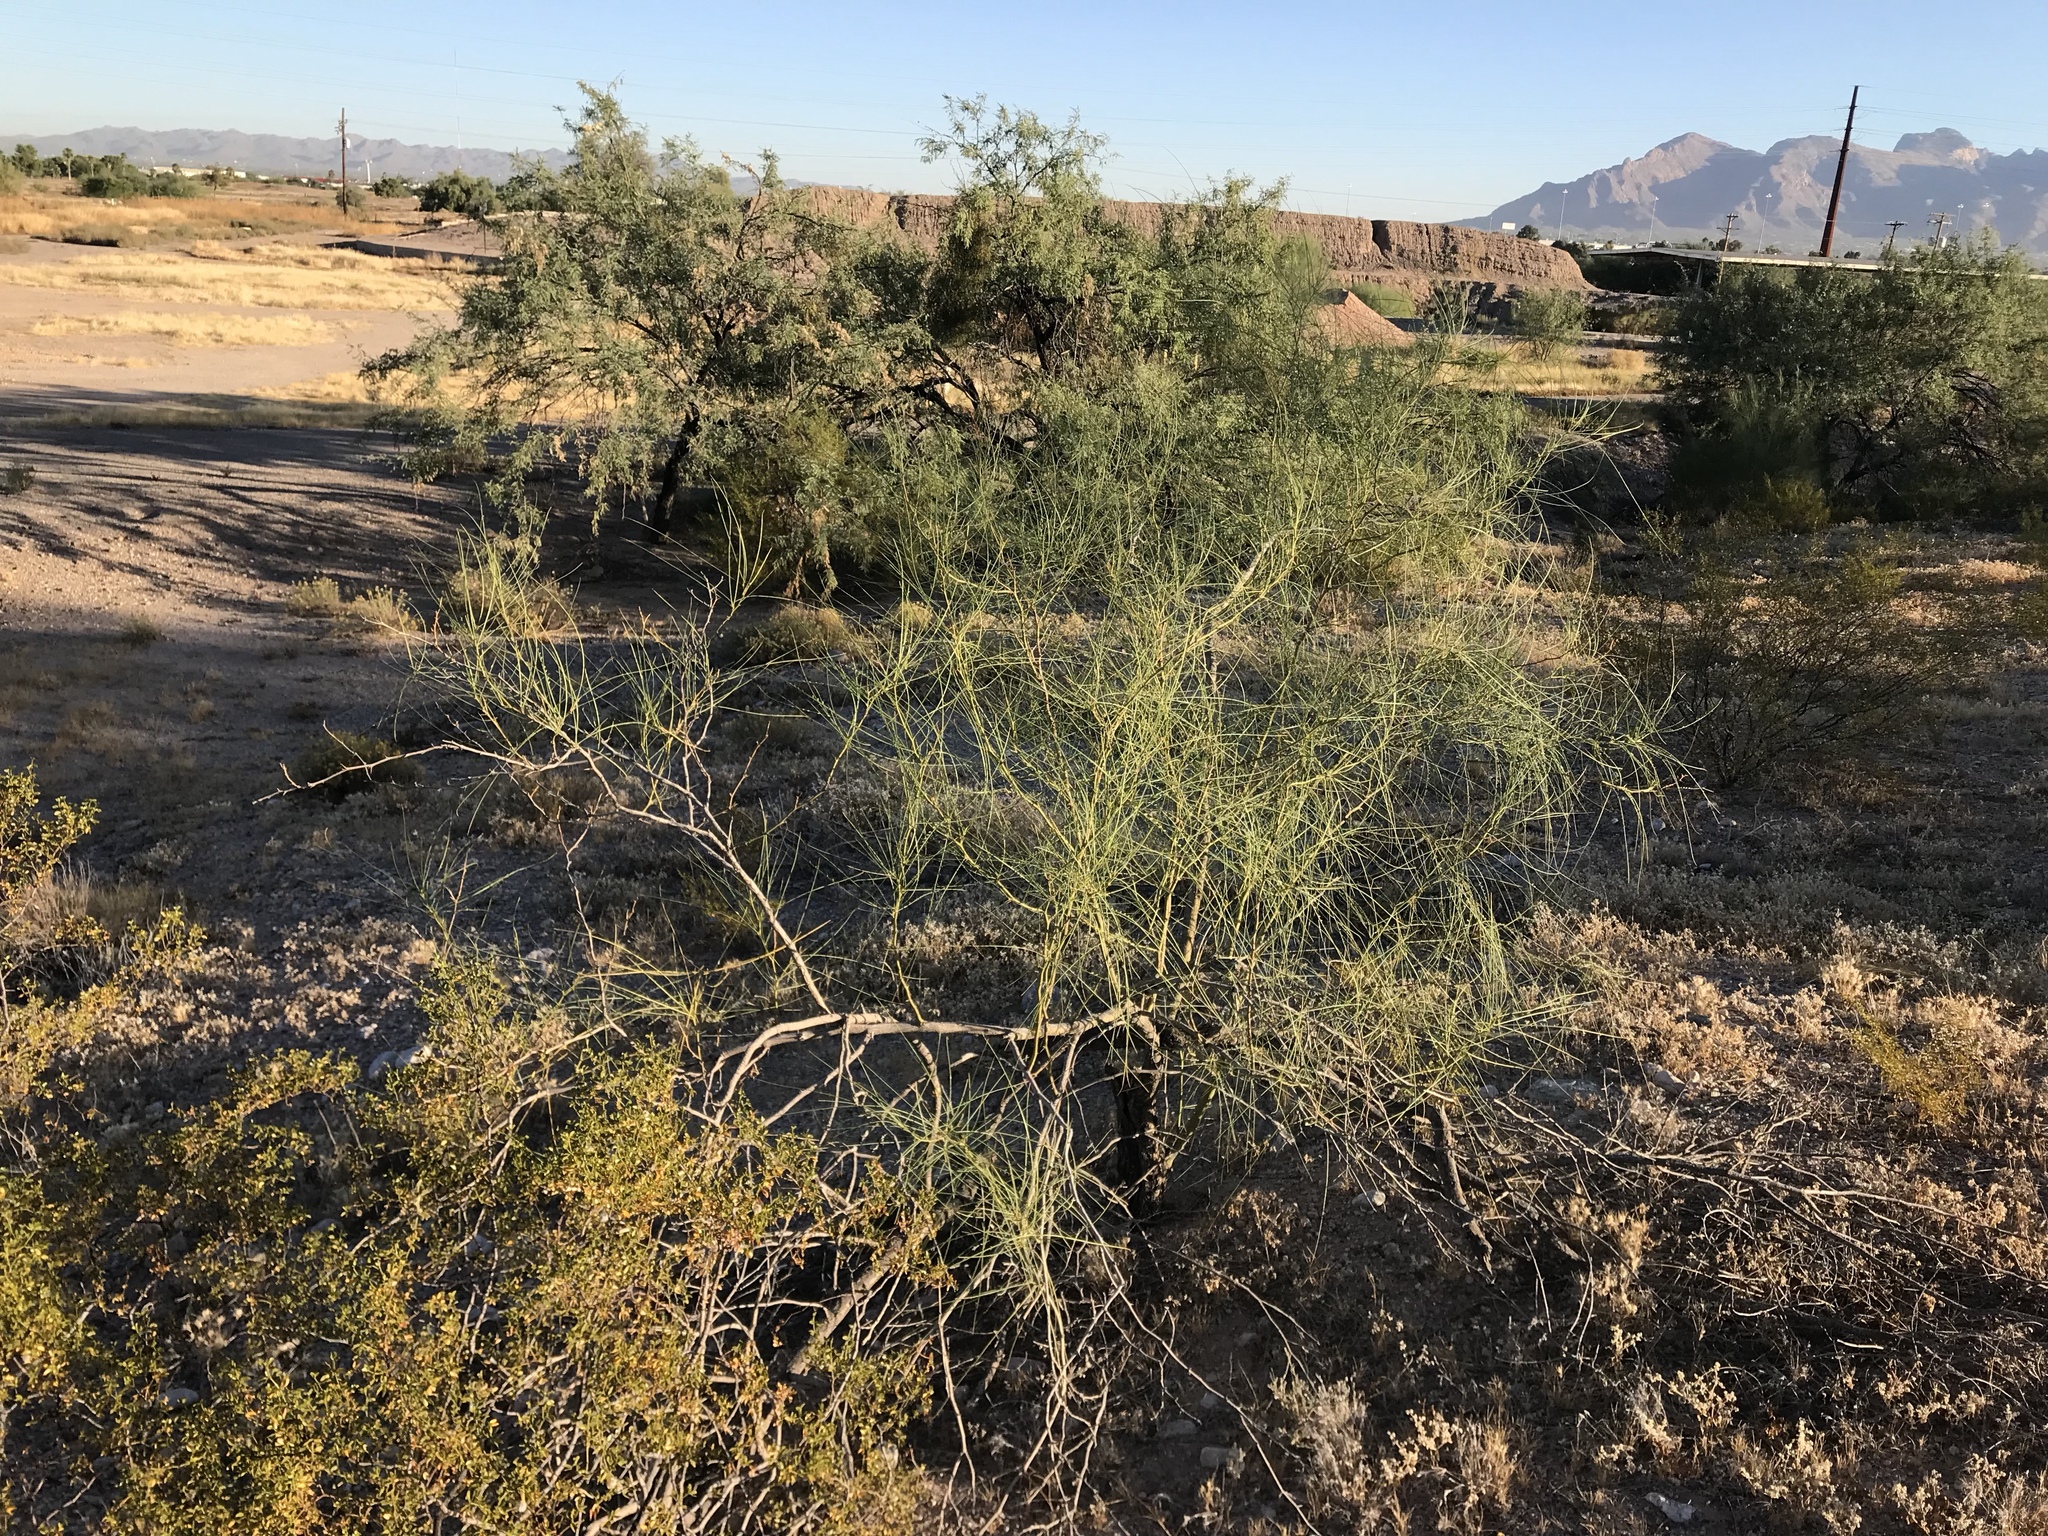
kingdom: Plantae
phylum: Tracheophyta
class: Magnoliopsida
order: Fabales
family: Fabaceae
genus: Parkinsonia
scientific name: Parkinsonia aculeata
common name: Jerusalem thorn
